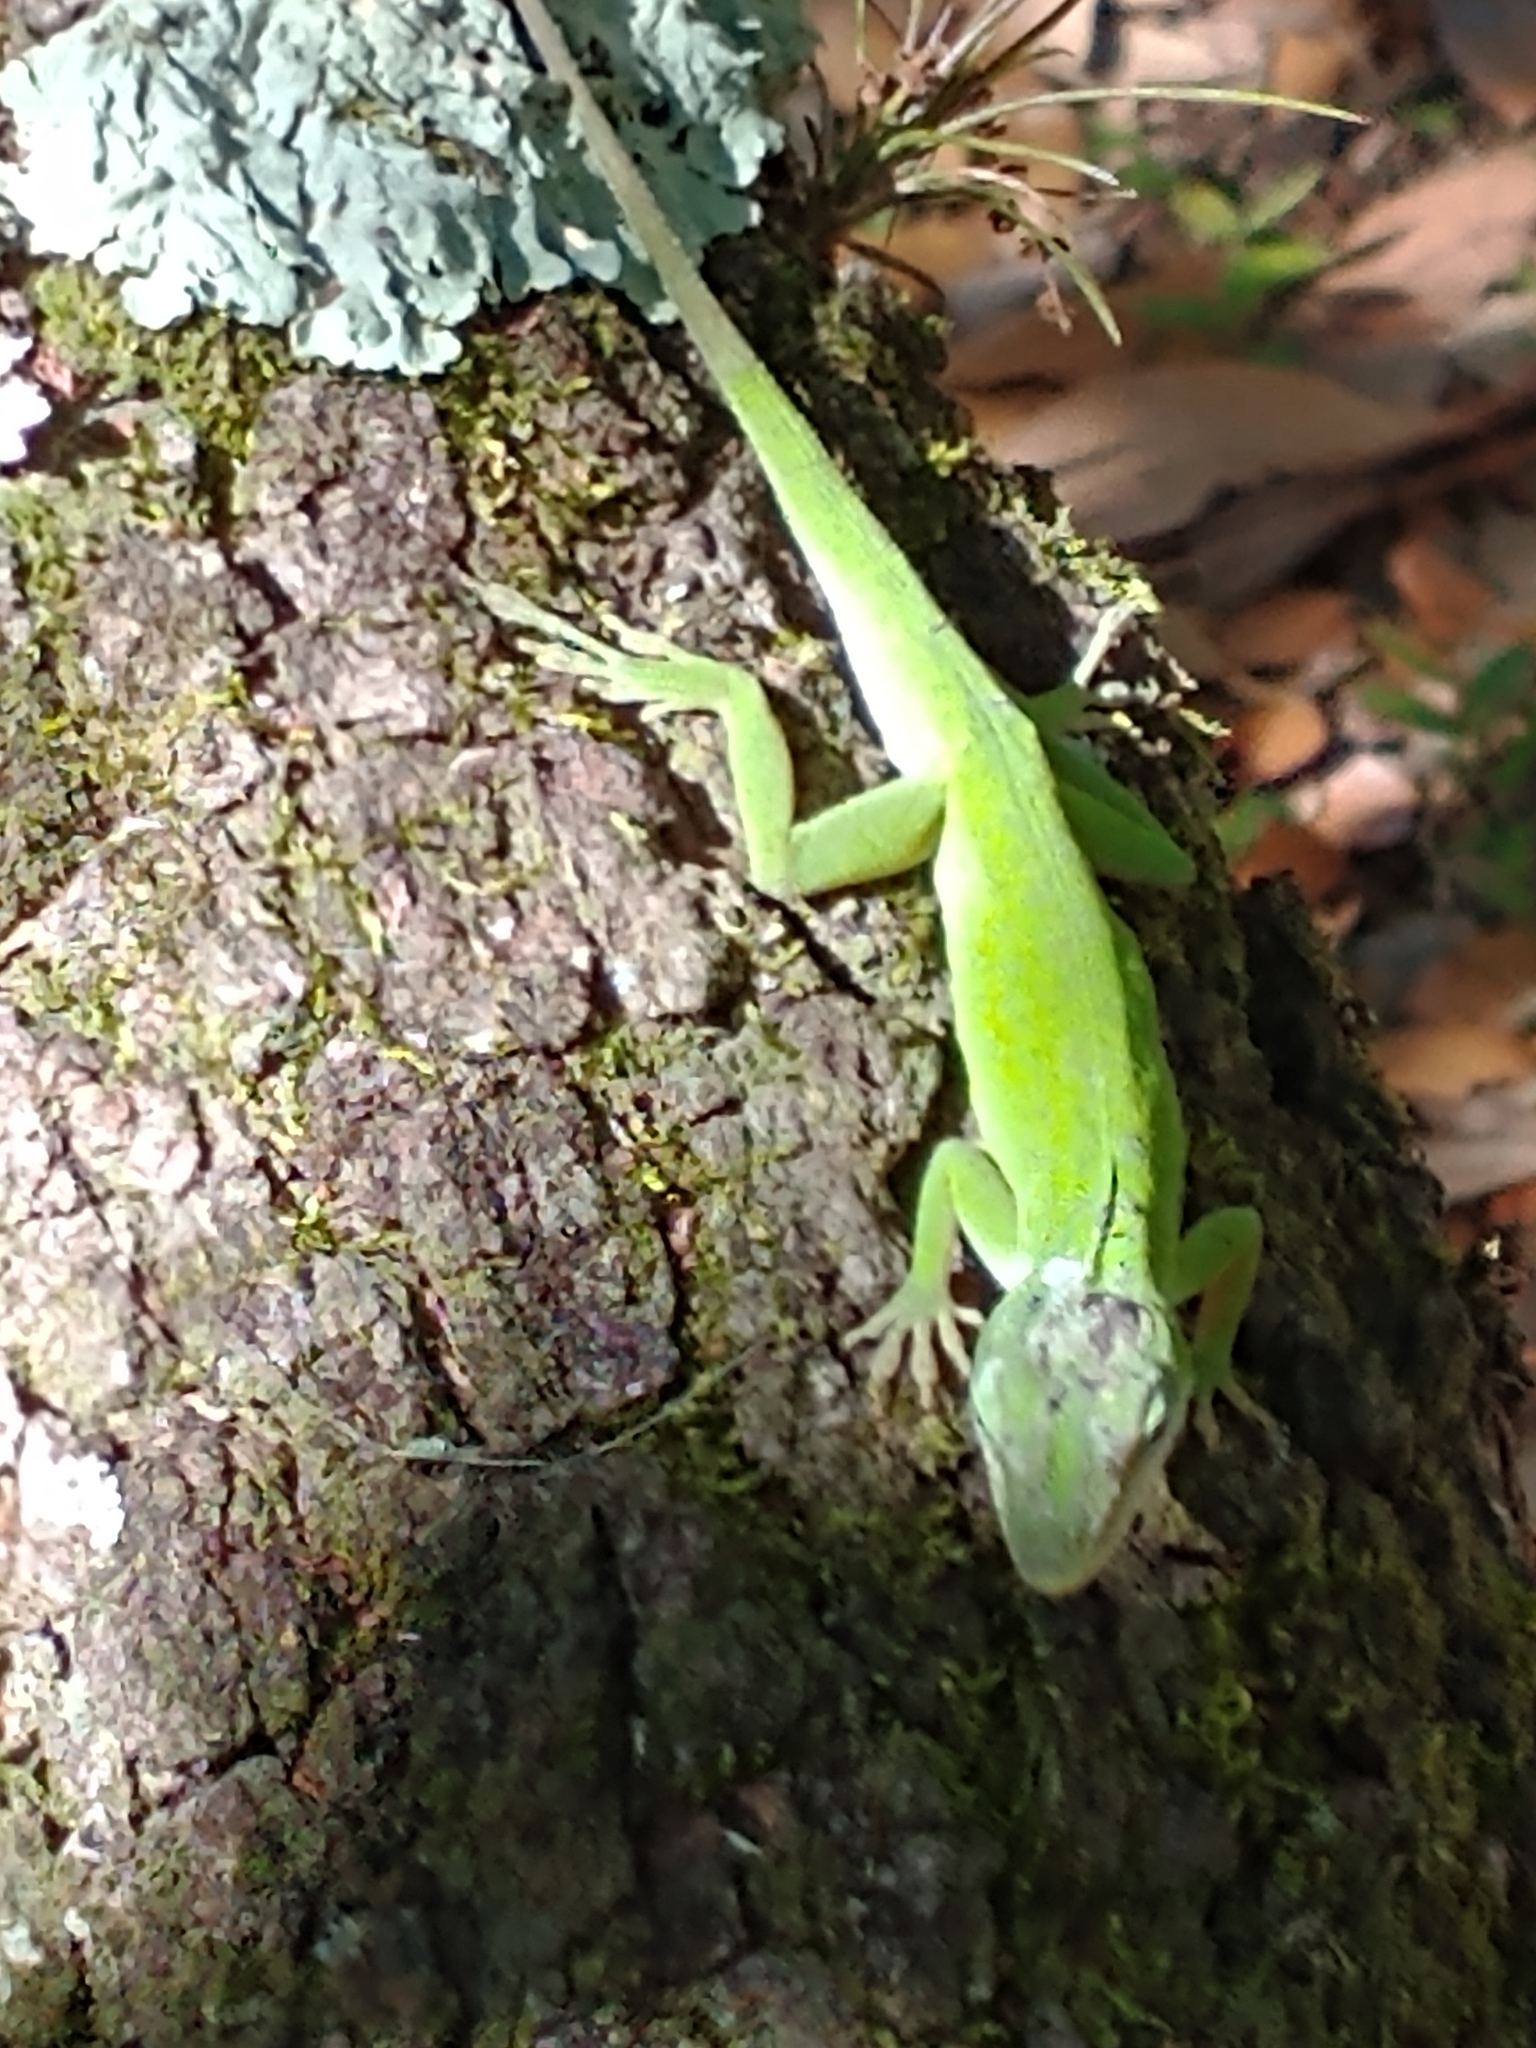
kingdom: Animalia
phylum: Chordata
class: Squamata
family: Dactyloidae
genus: Anolis
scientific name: Anolis carolinensis
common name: Green anole
